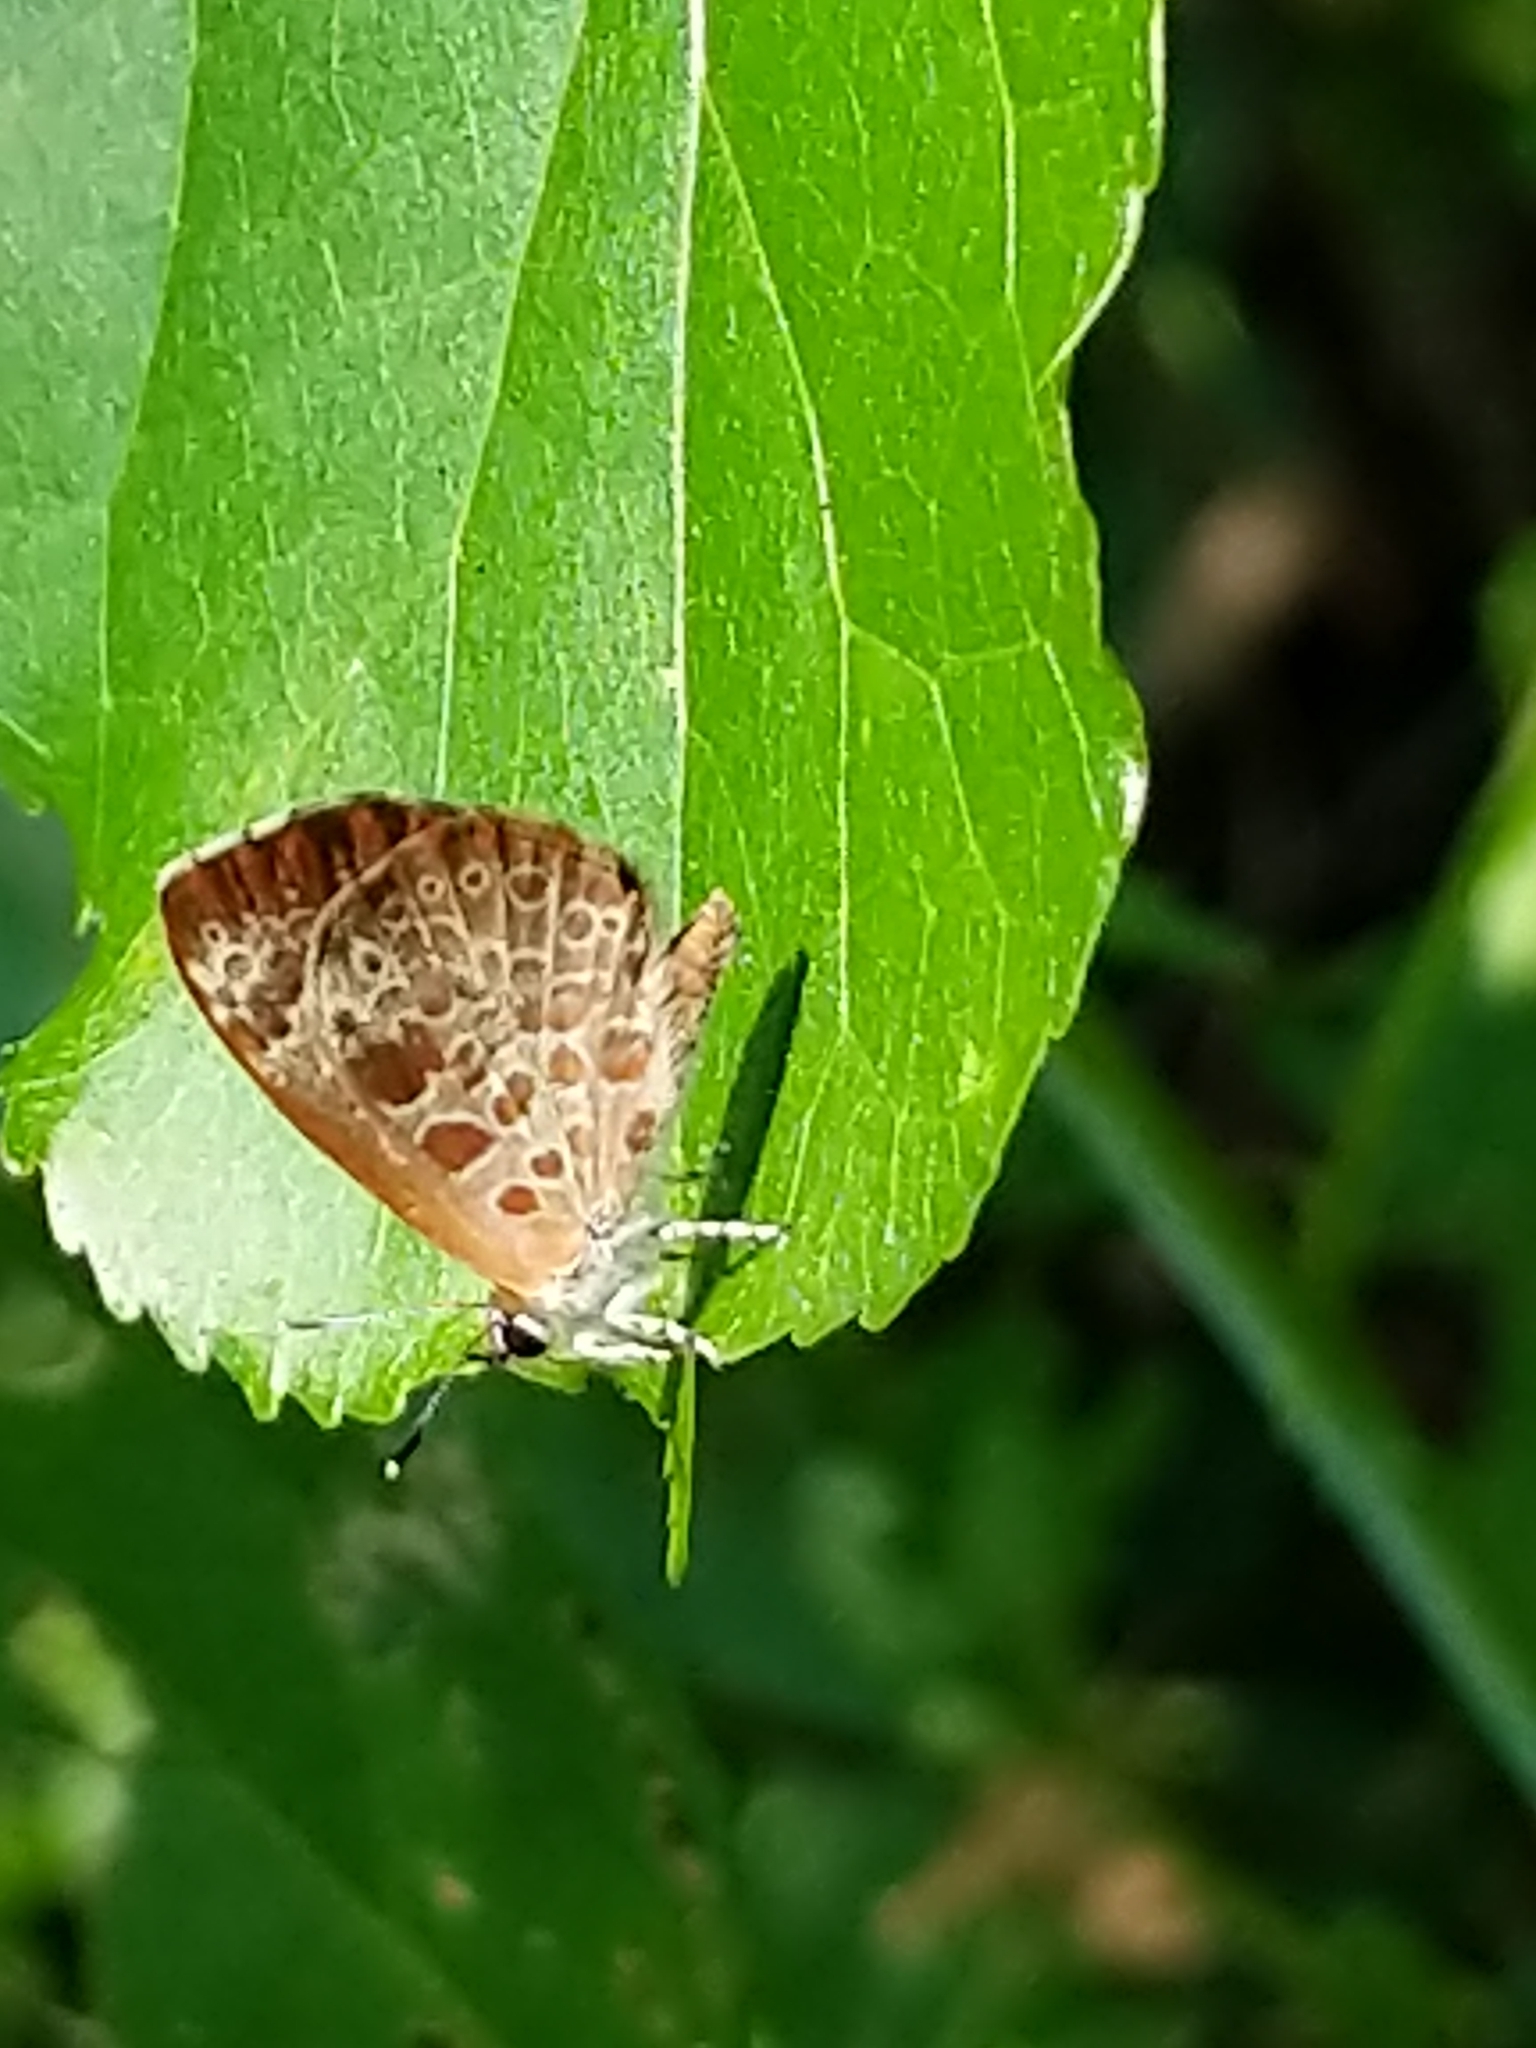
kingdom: Animalia
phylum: Arthropoda
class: Insecta
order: Lepidoptera
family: Lycaenidae
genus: Feniseca
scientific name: Feniseca tarquinius
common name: Harvester
